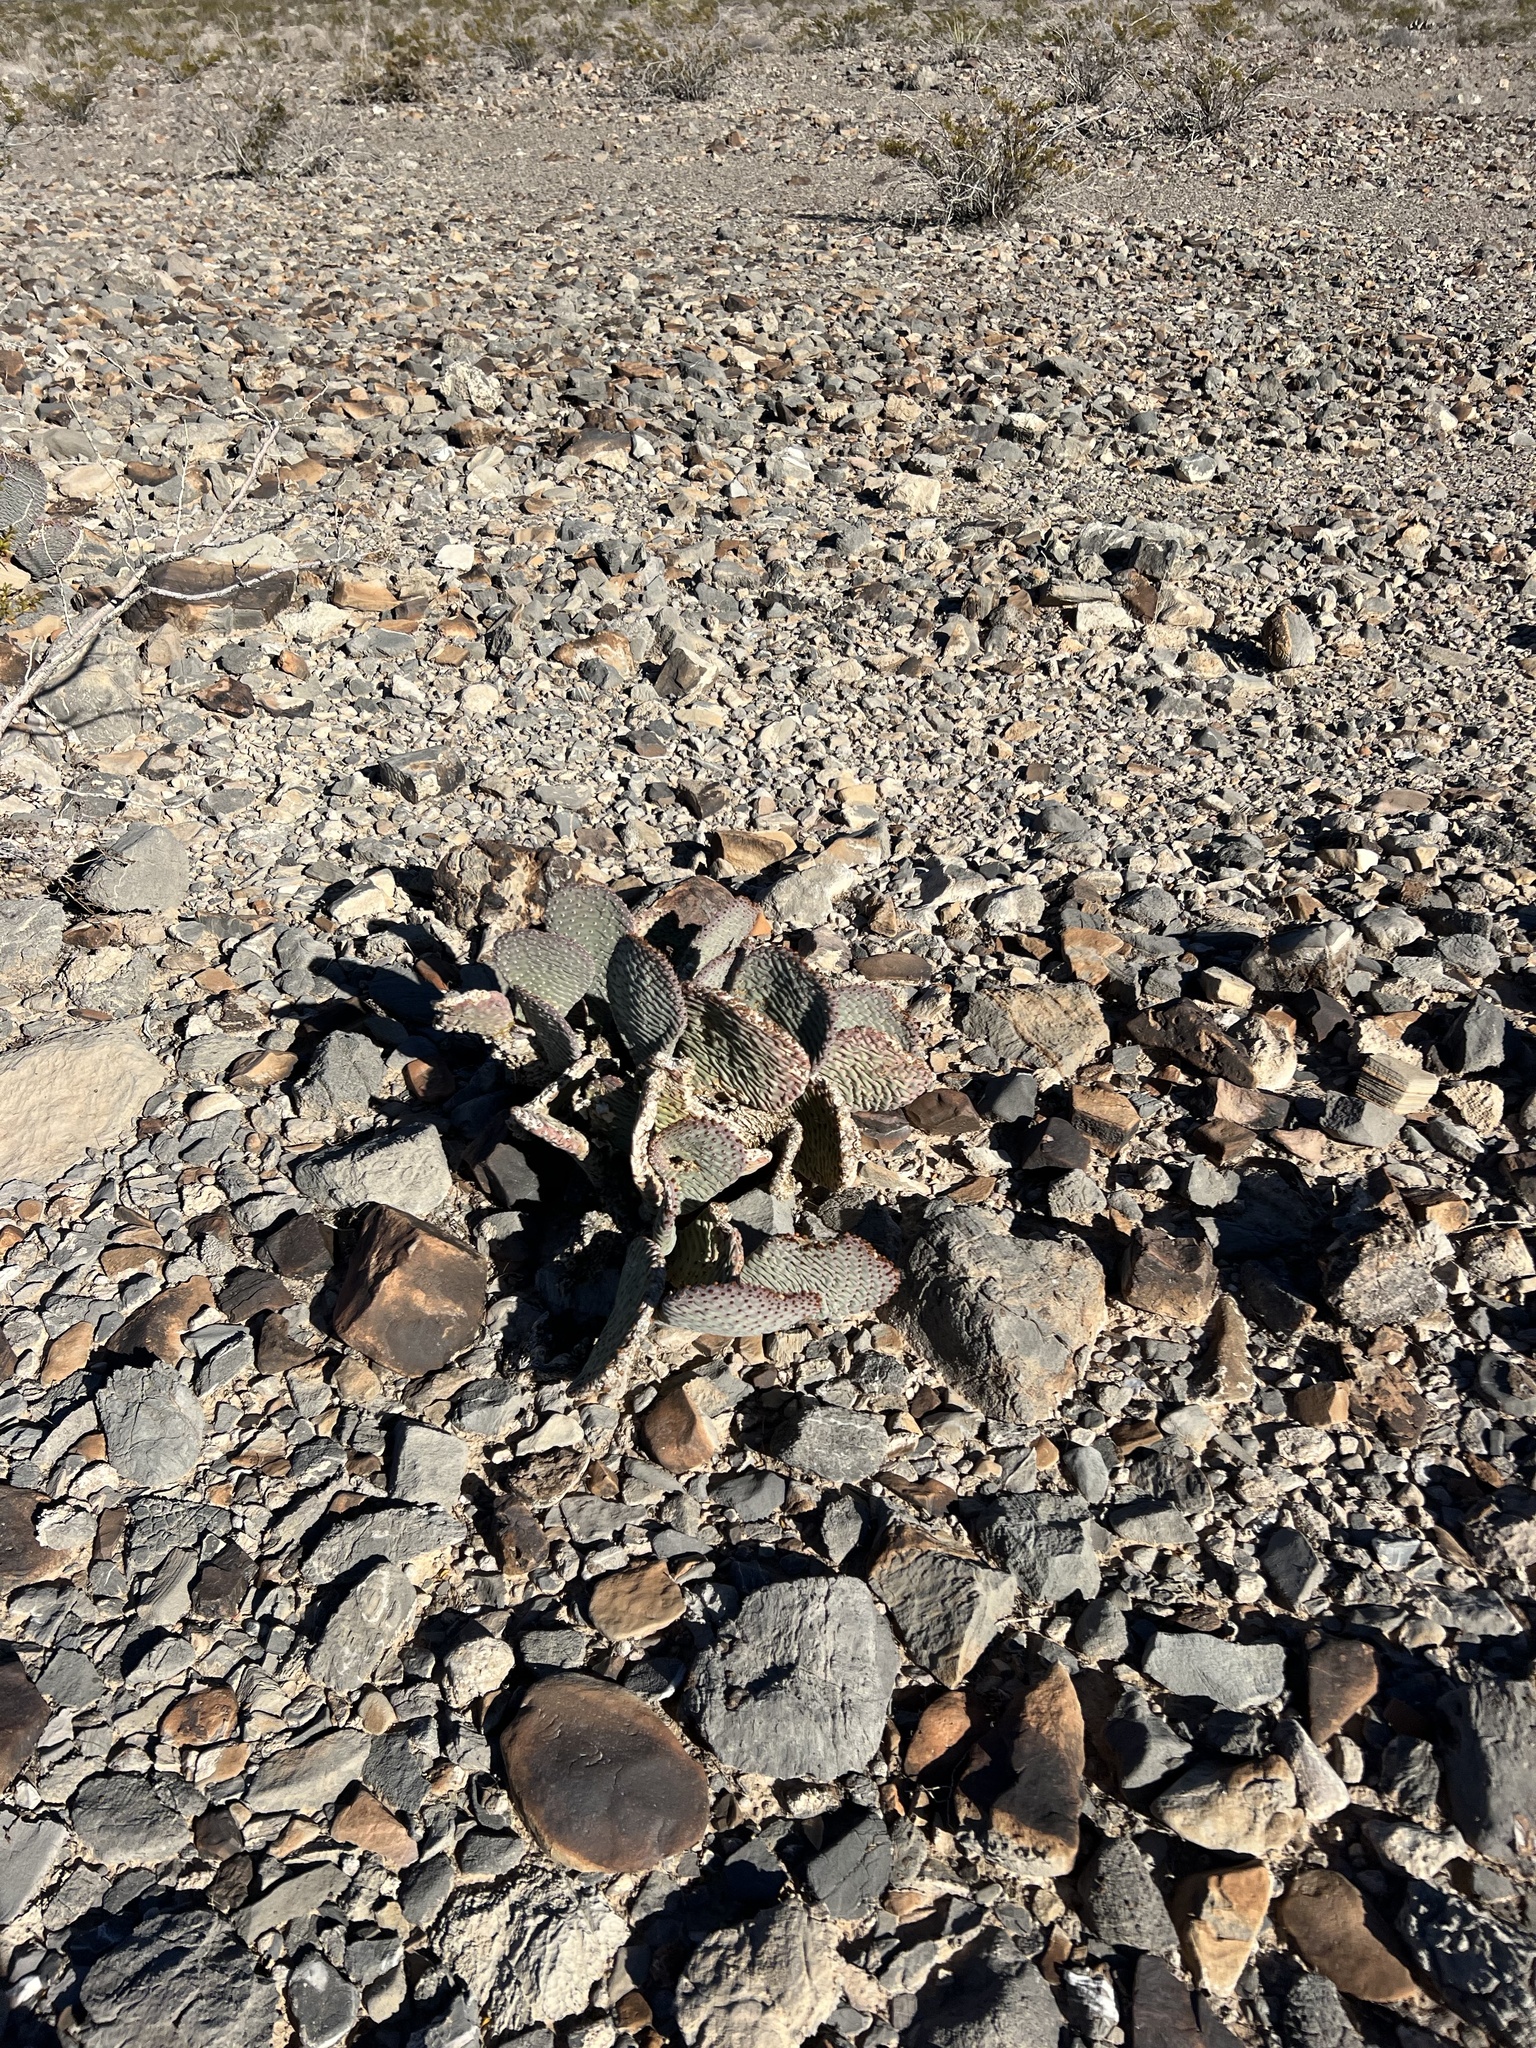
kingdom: Plantae
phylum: Tracheophyta
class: Magnoliopsida
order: Caryophyllales
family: Cactaceae
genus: Opuntia
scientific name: Opuntia basilaris
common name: Beavertail prickly-pear
